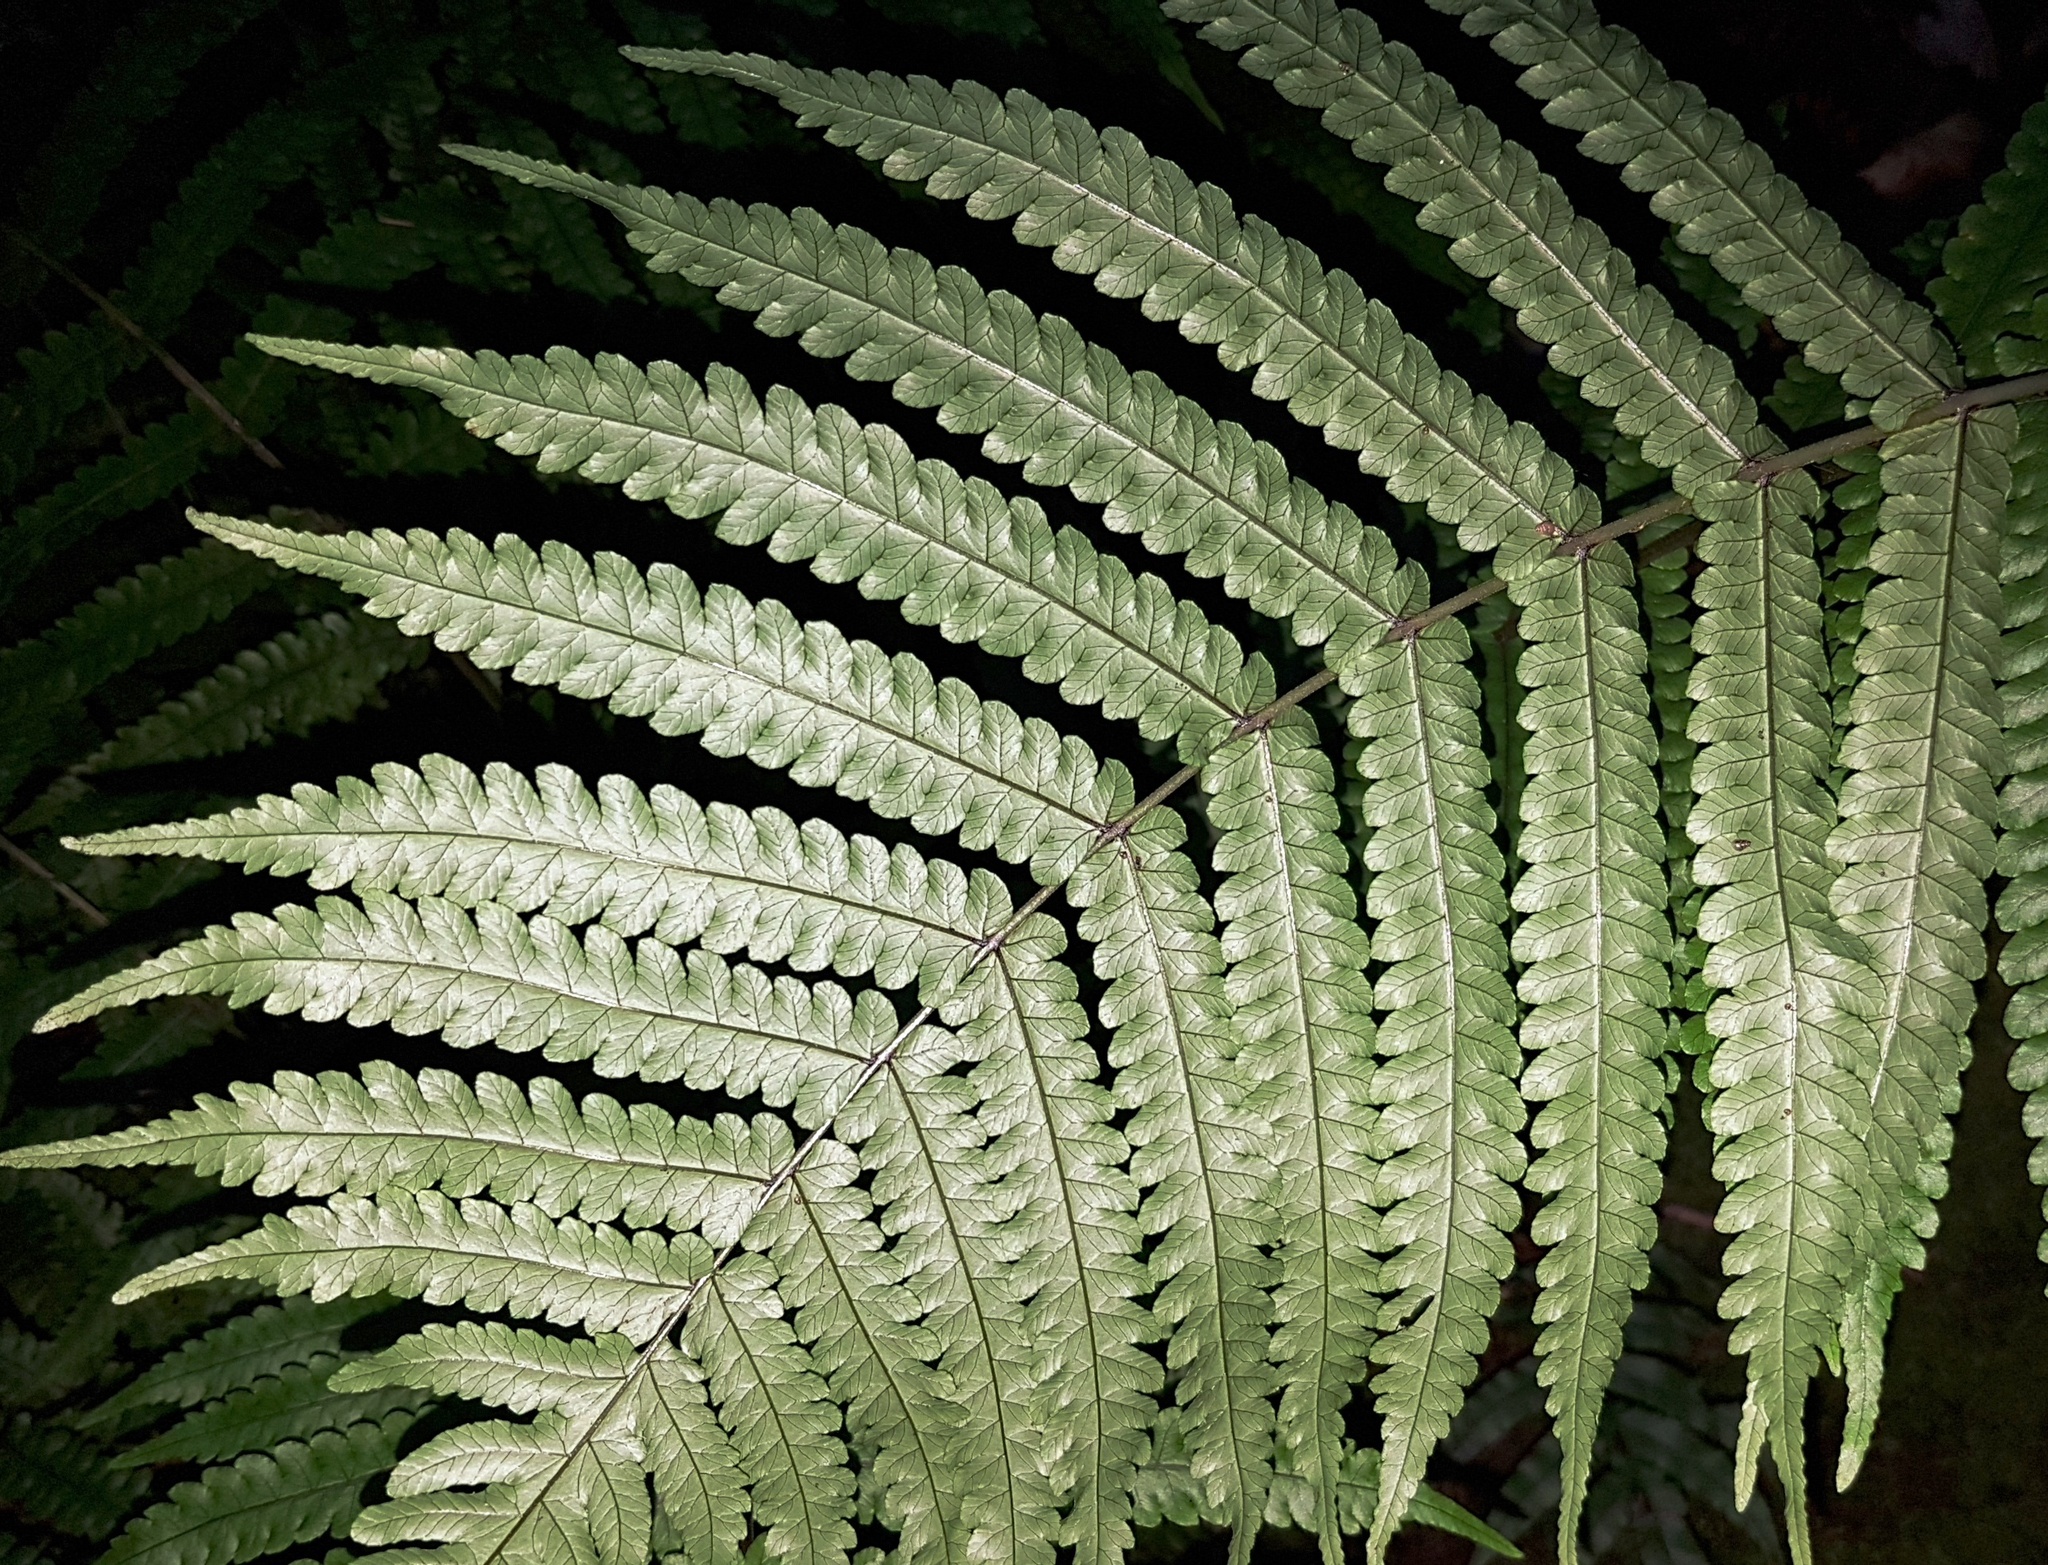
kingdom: Plantae
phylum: Tracheophyta
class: Polypodiopsida
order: Polypodiales
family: Thelypteridaceae
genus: Pakau
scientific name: Pakau pennigera
